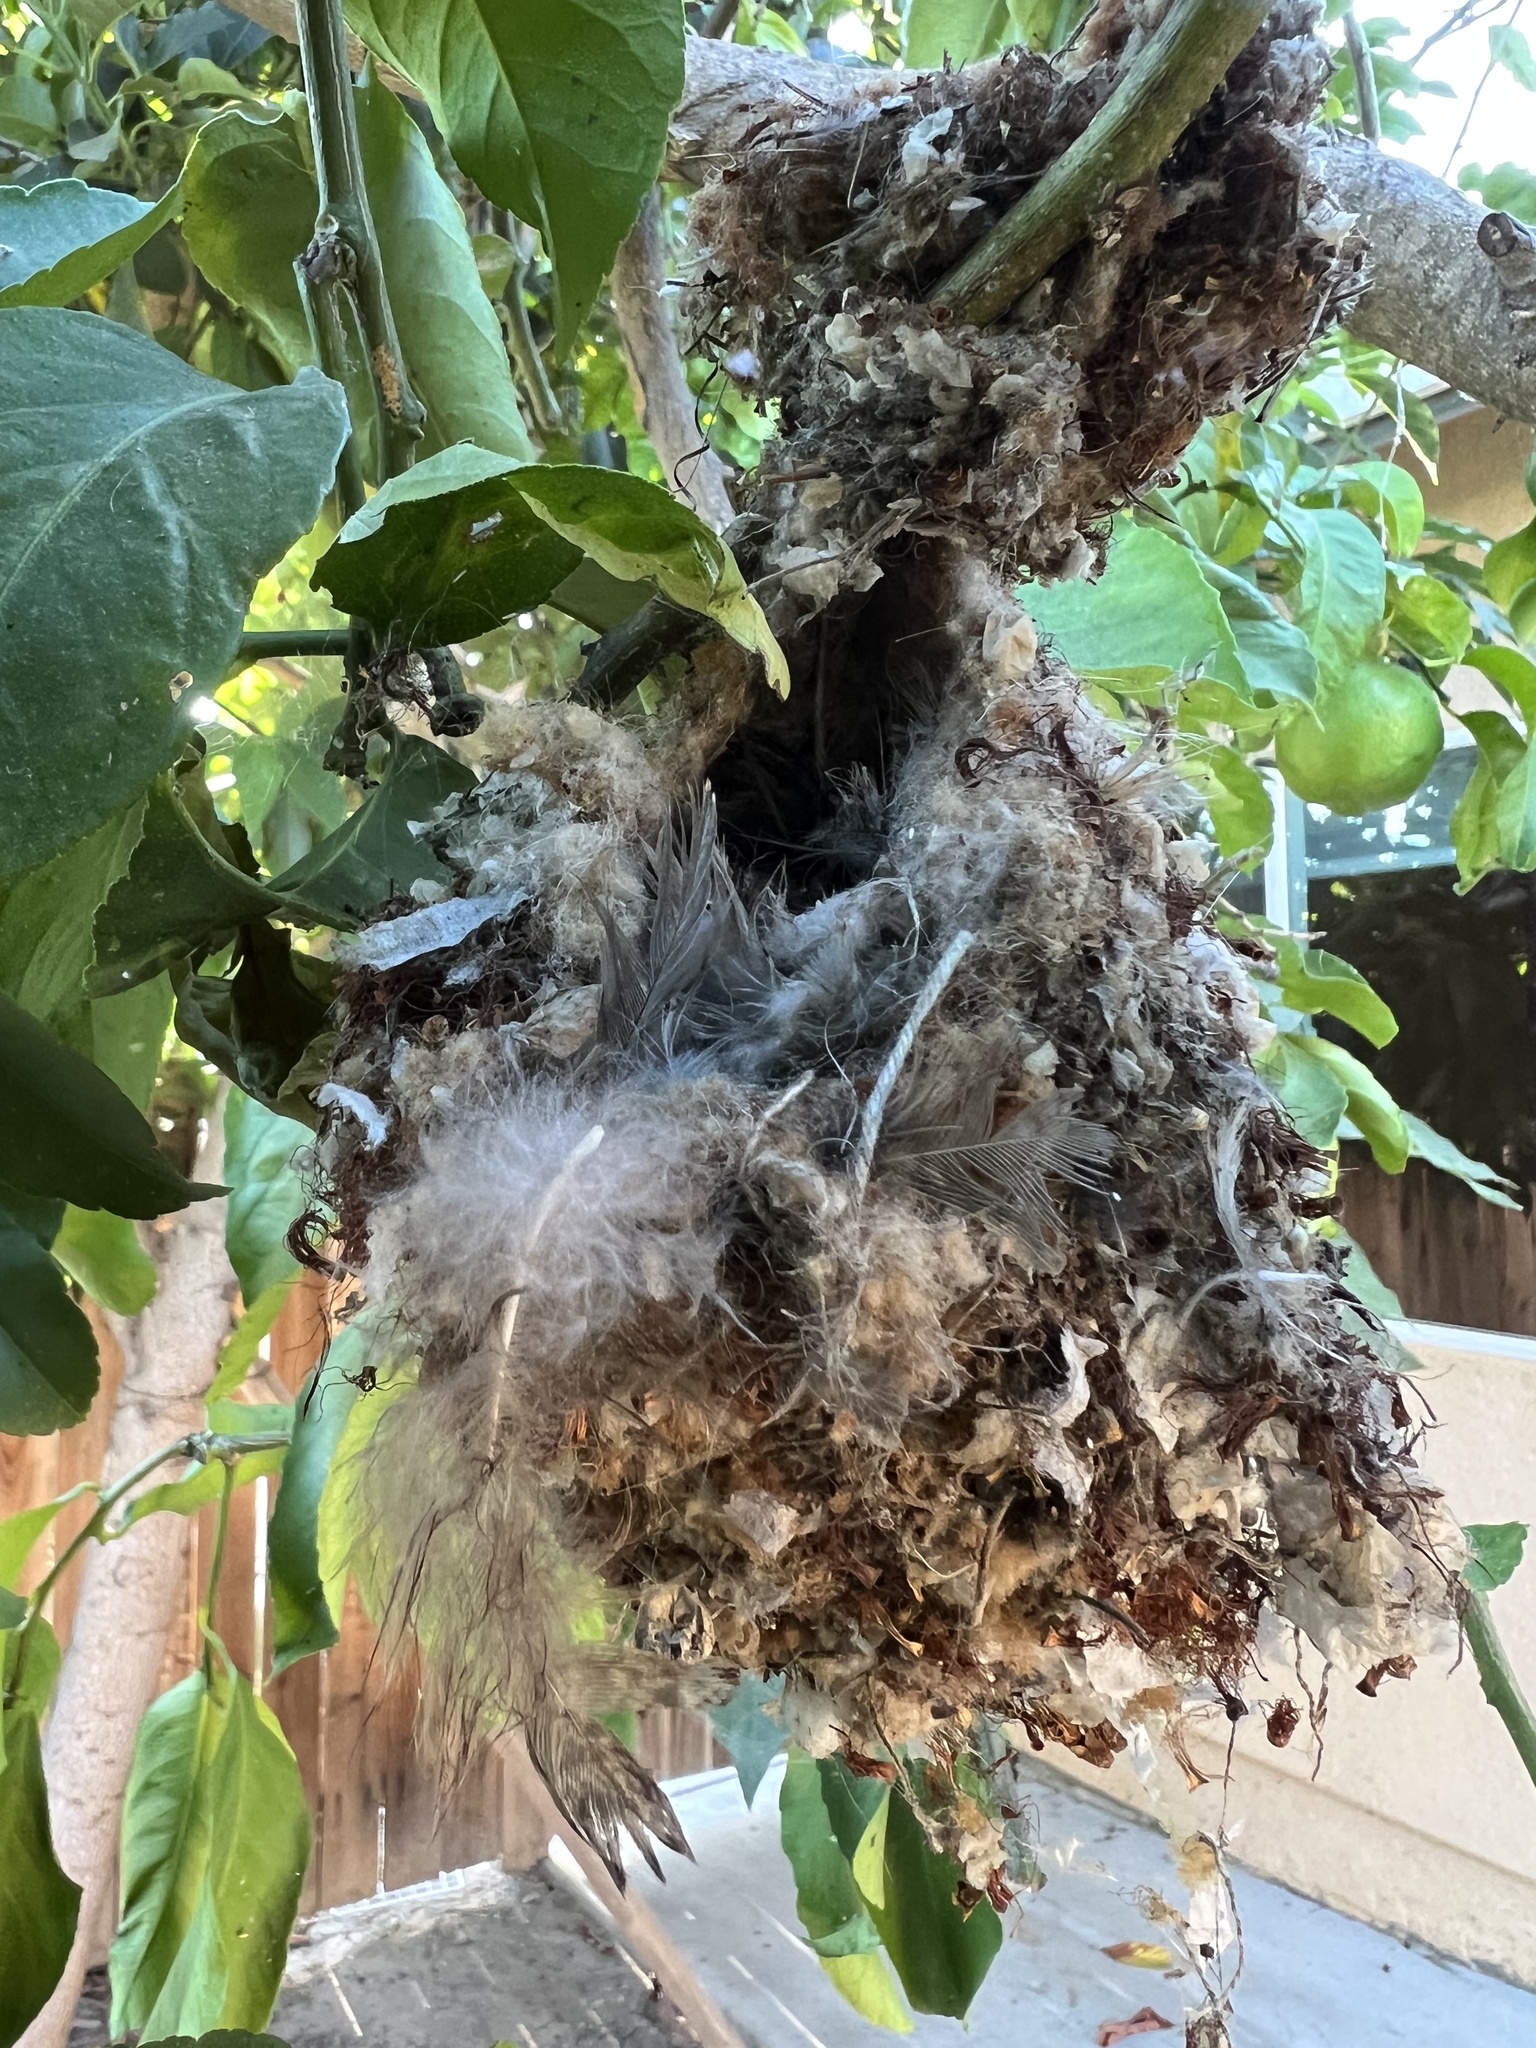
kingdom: Animalia
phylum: Chordata
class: Aves
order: Passeriformes
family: Aegithalidae
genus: Psaltriparus
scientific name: Psaltriparus minimus
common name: American bushtit
